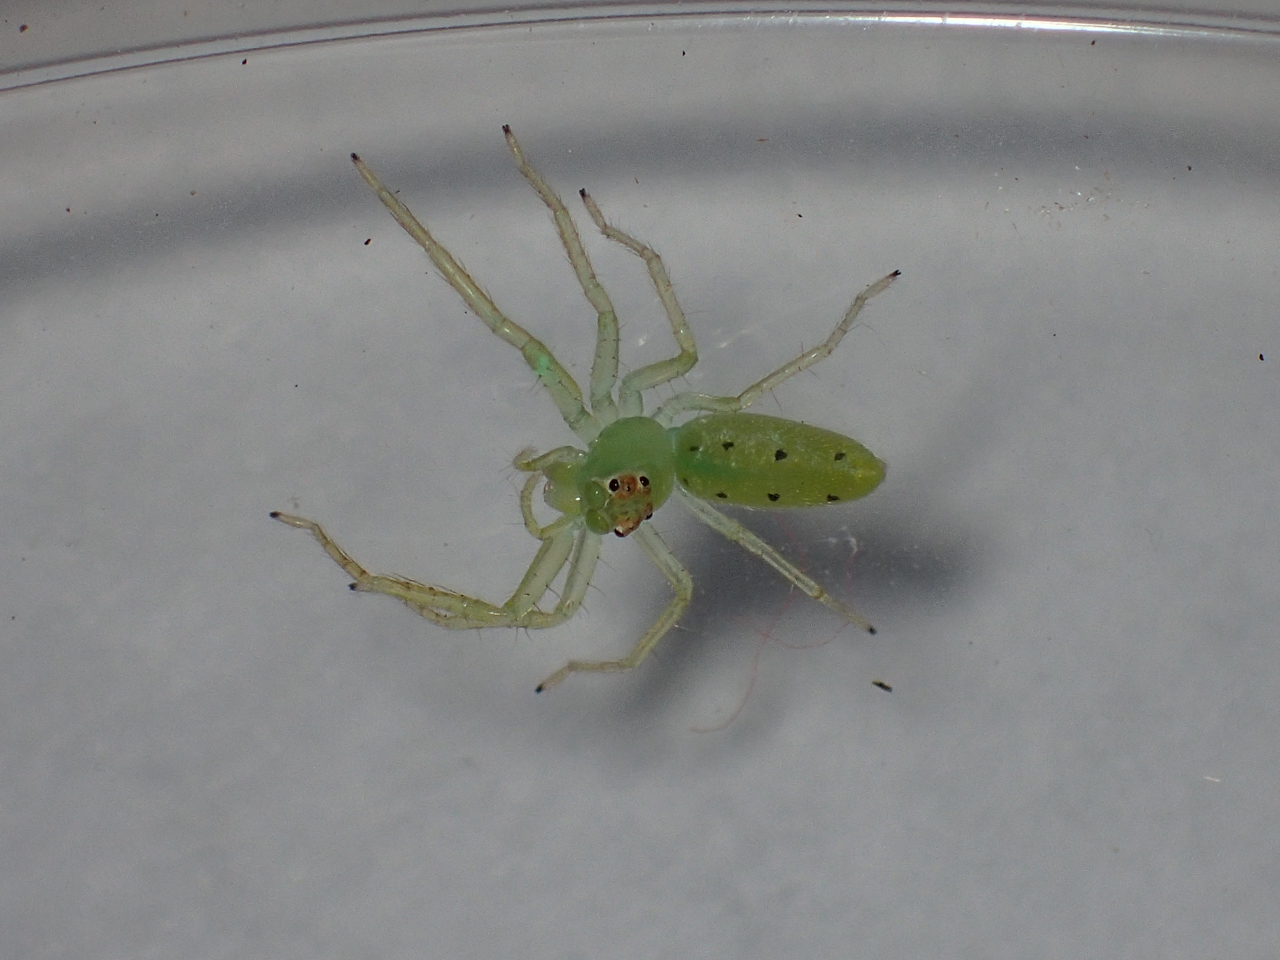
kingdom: Animalia
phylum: Arthropoda
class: Arachnida
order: Araneae
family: Salticidae
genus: Lyssomanes
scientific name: Lyssomanes viridis
